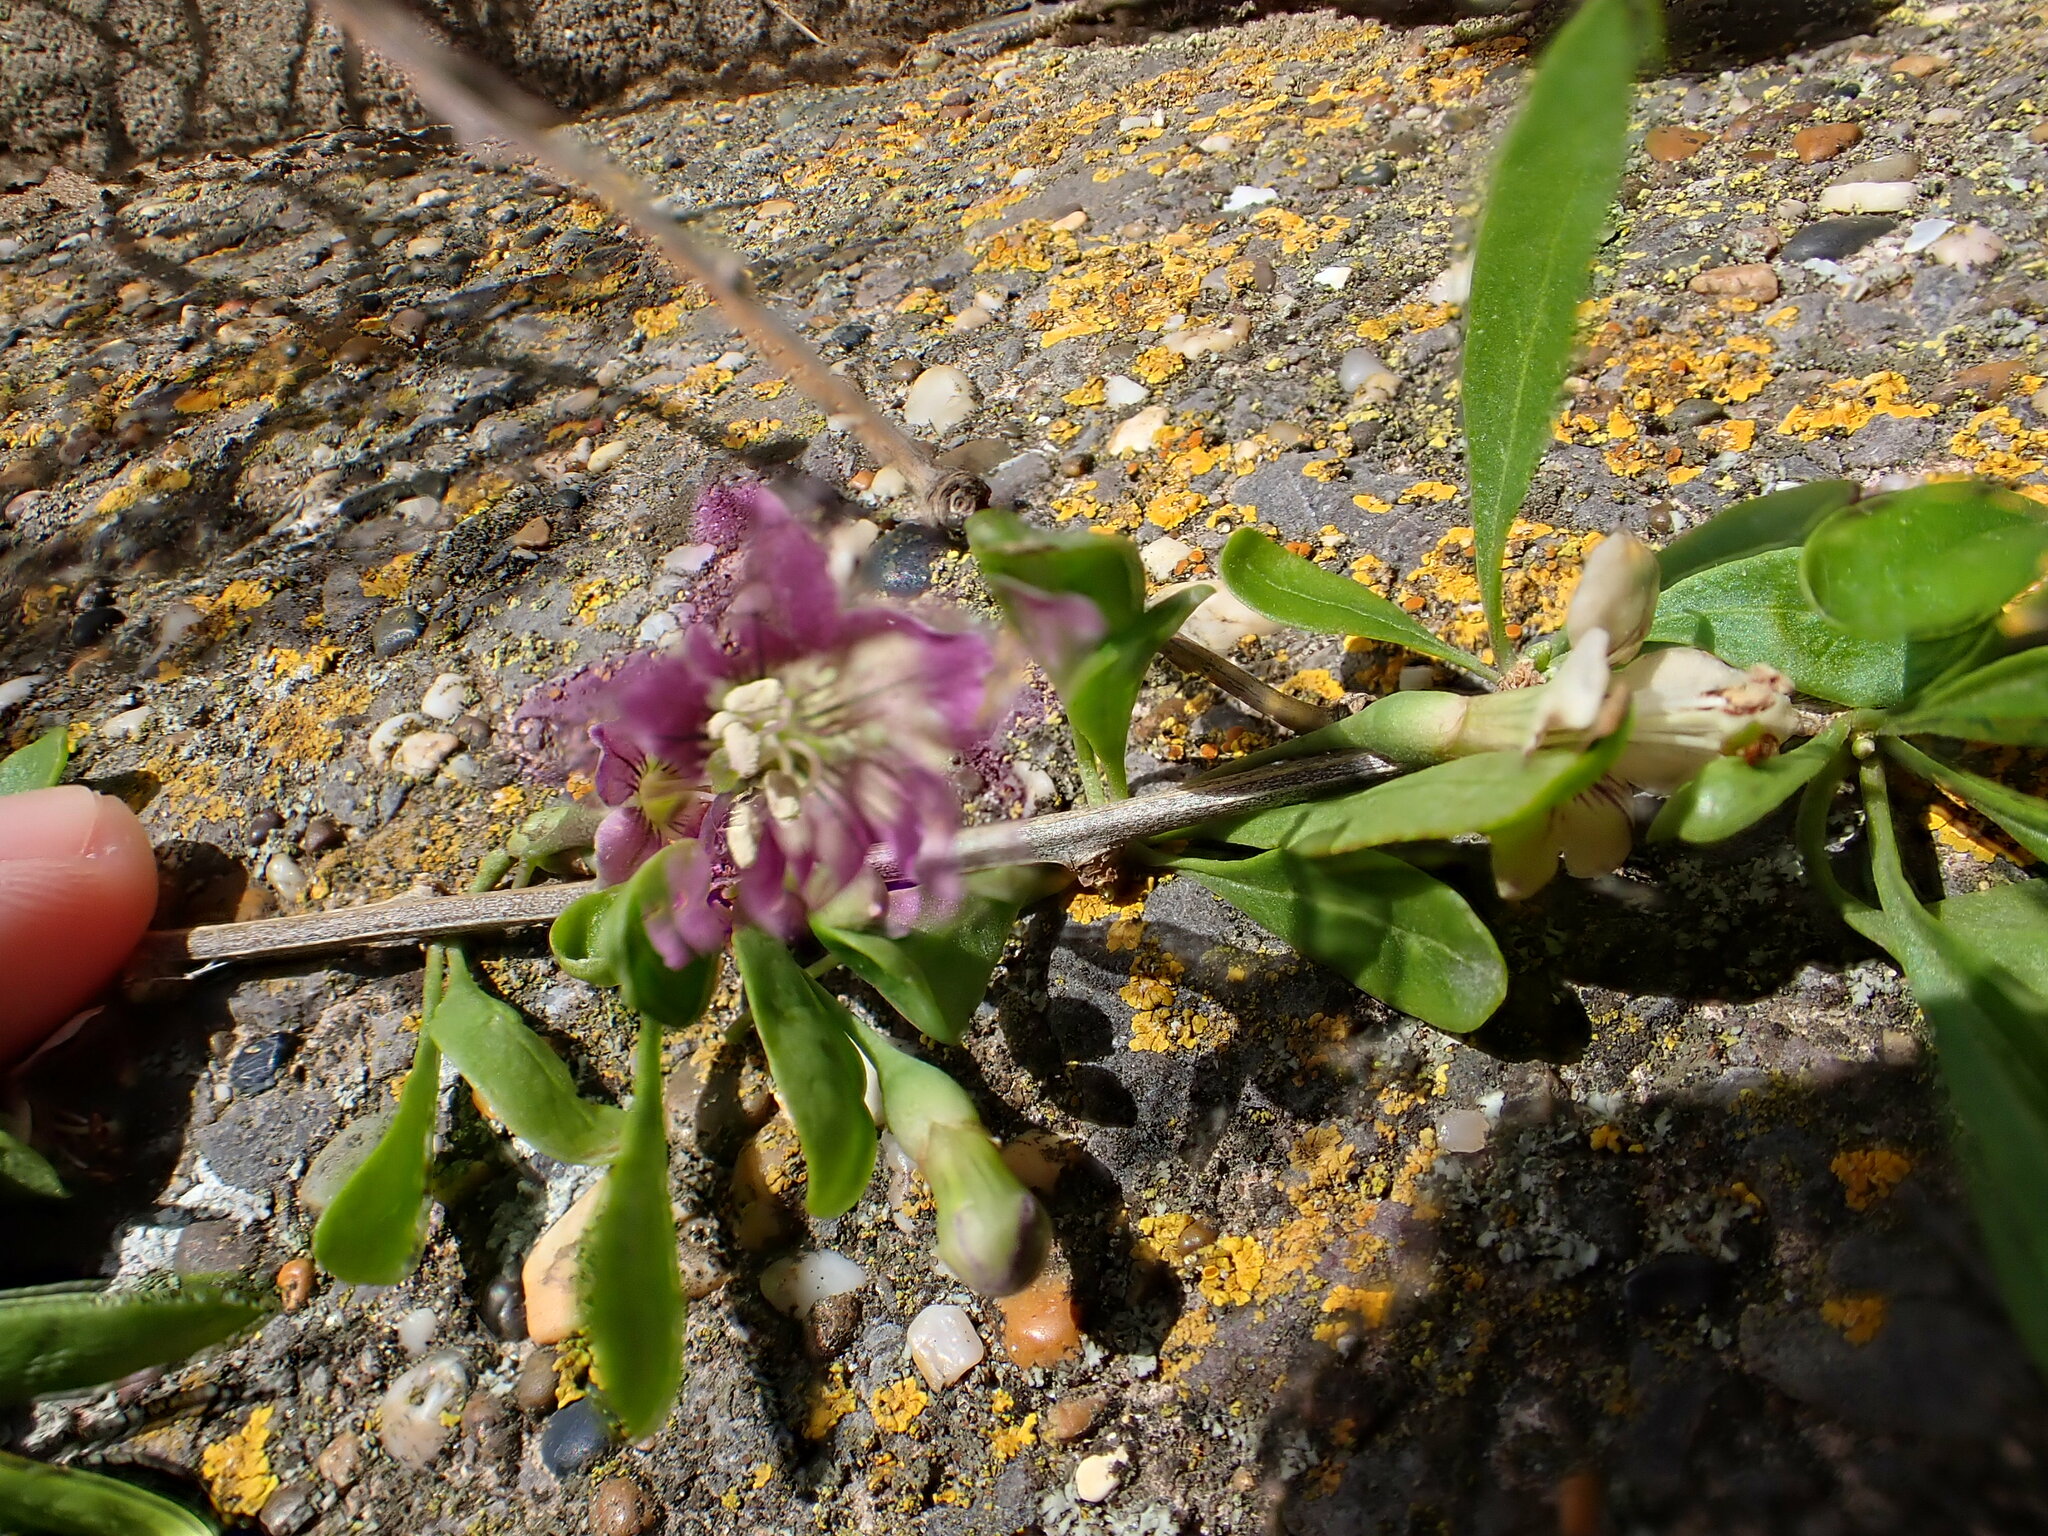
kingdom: Plantae
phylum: Tracheophyta
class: Magnoliopsida
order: Solanales
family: Solanaceae
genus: Lycium
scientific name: Lycium barbarum
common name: Duke of argyll's teaplant
